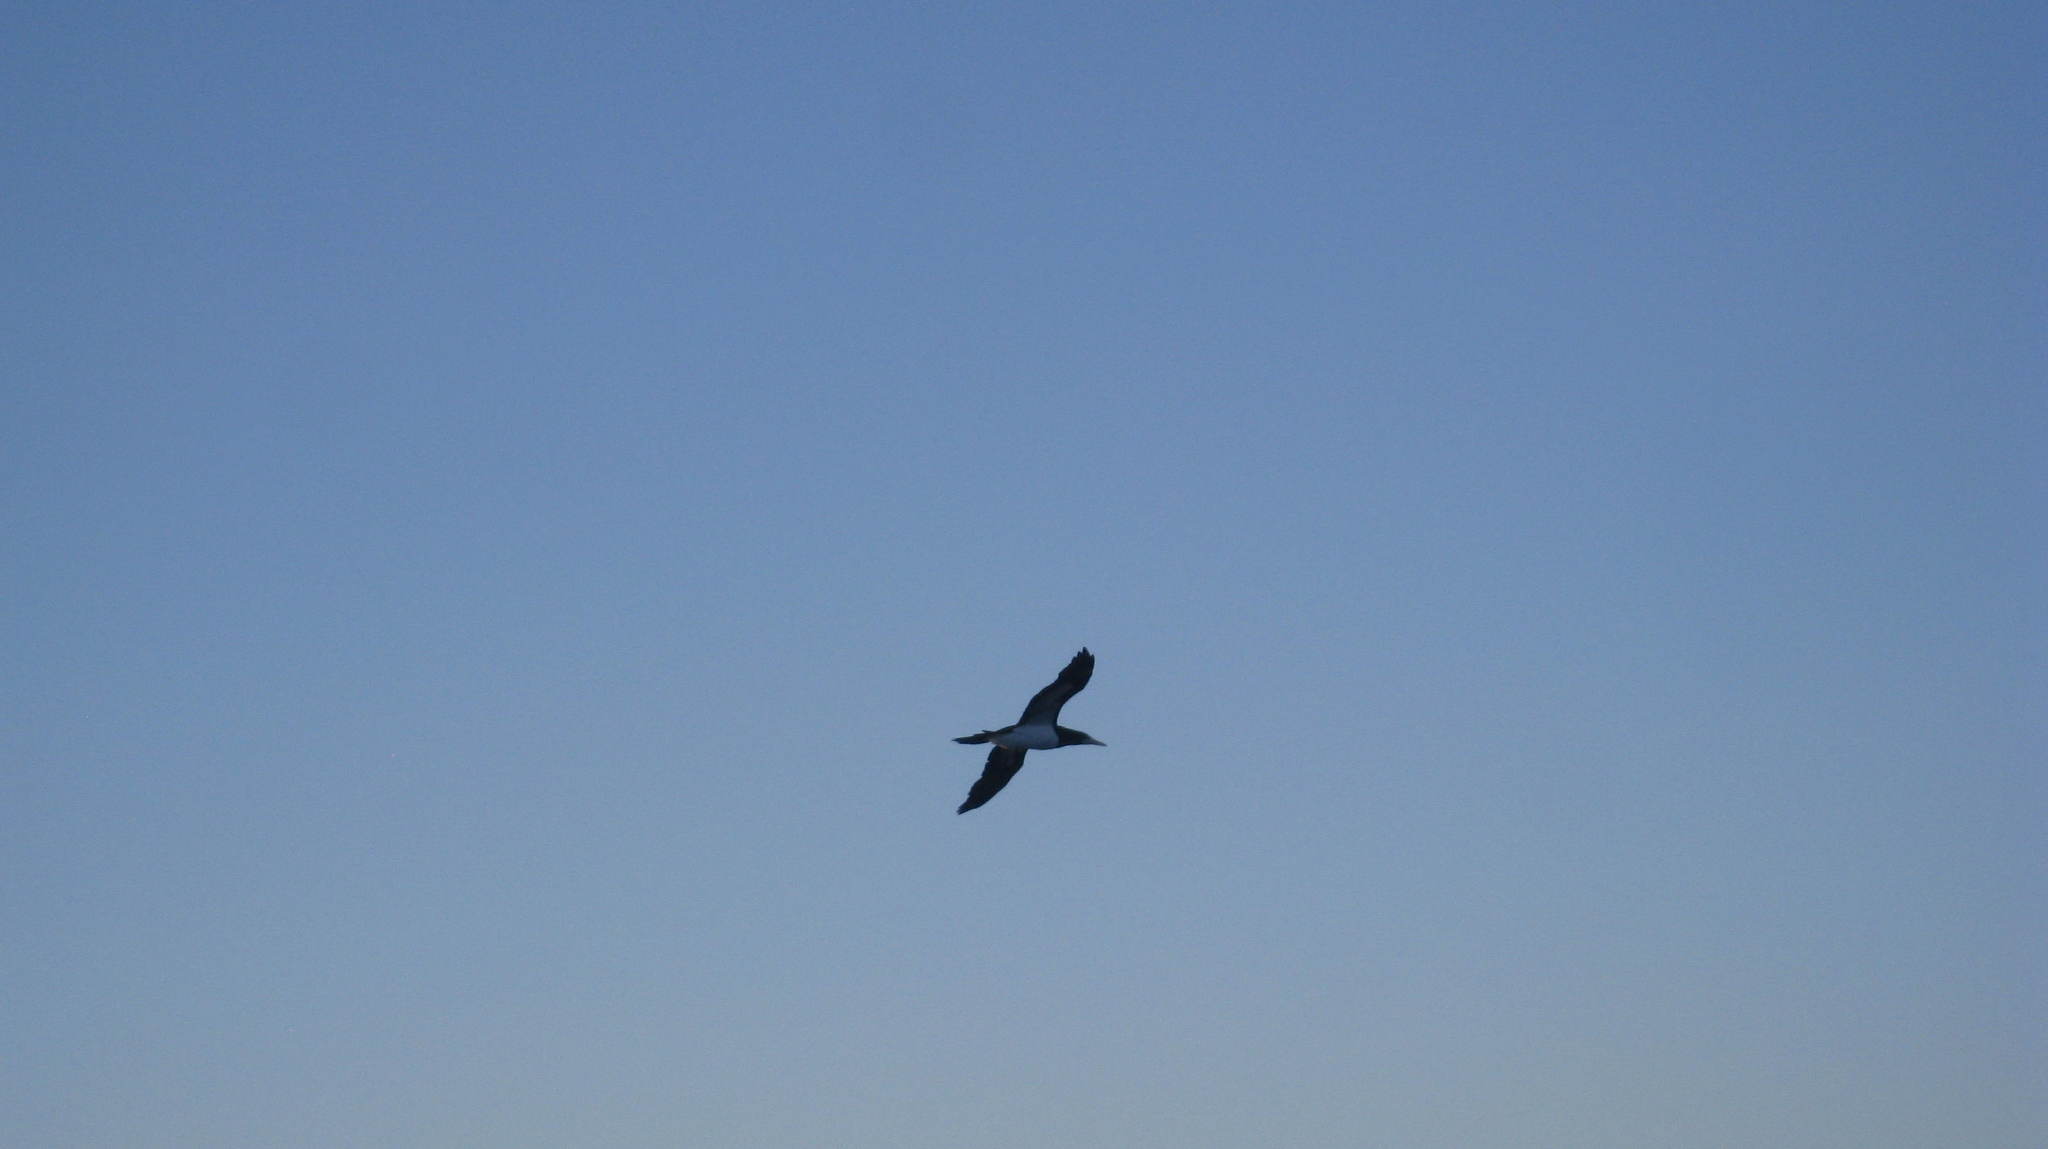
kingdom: Animalia
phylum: Chordata
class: Aves
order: Suliformes
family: Sulidae
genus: Sula
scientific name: Sula leucogaster
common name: Brown booby
